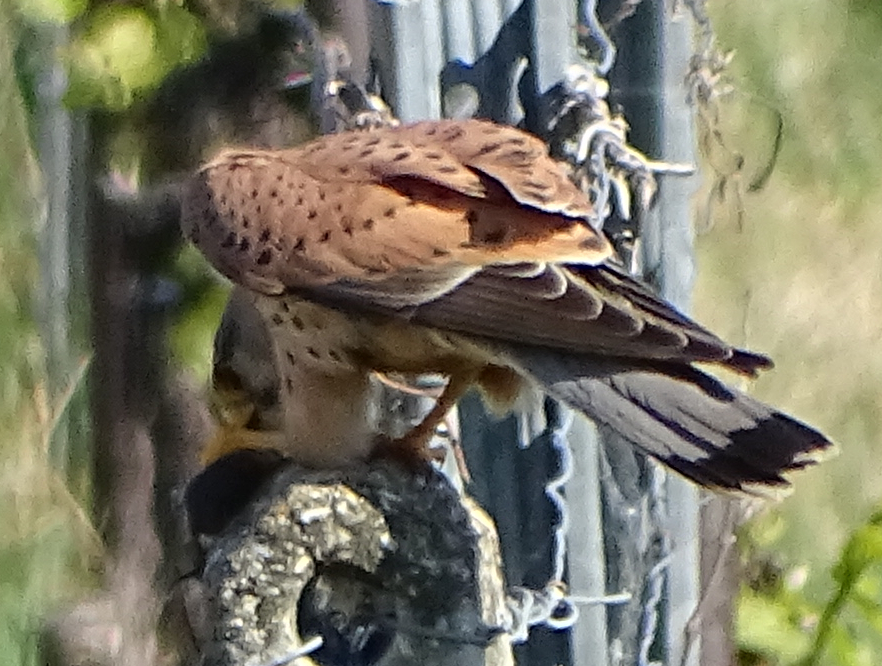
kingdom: Animalia
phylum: Chordata
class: Aves
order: Falconiformes
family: Falconidae
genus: Falco
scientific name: Falco tinnunculus
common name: Common kestrel
